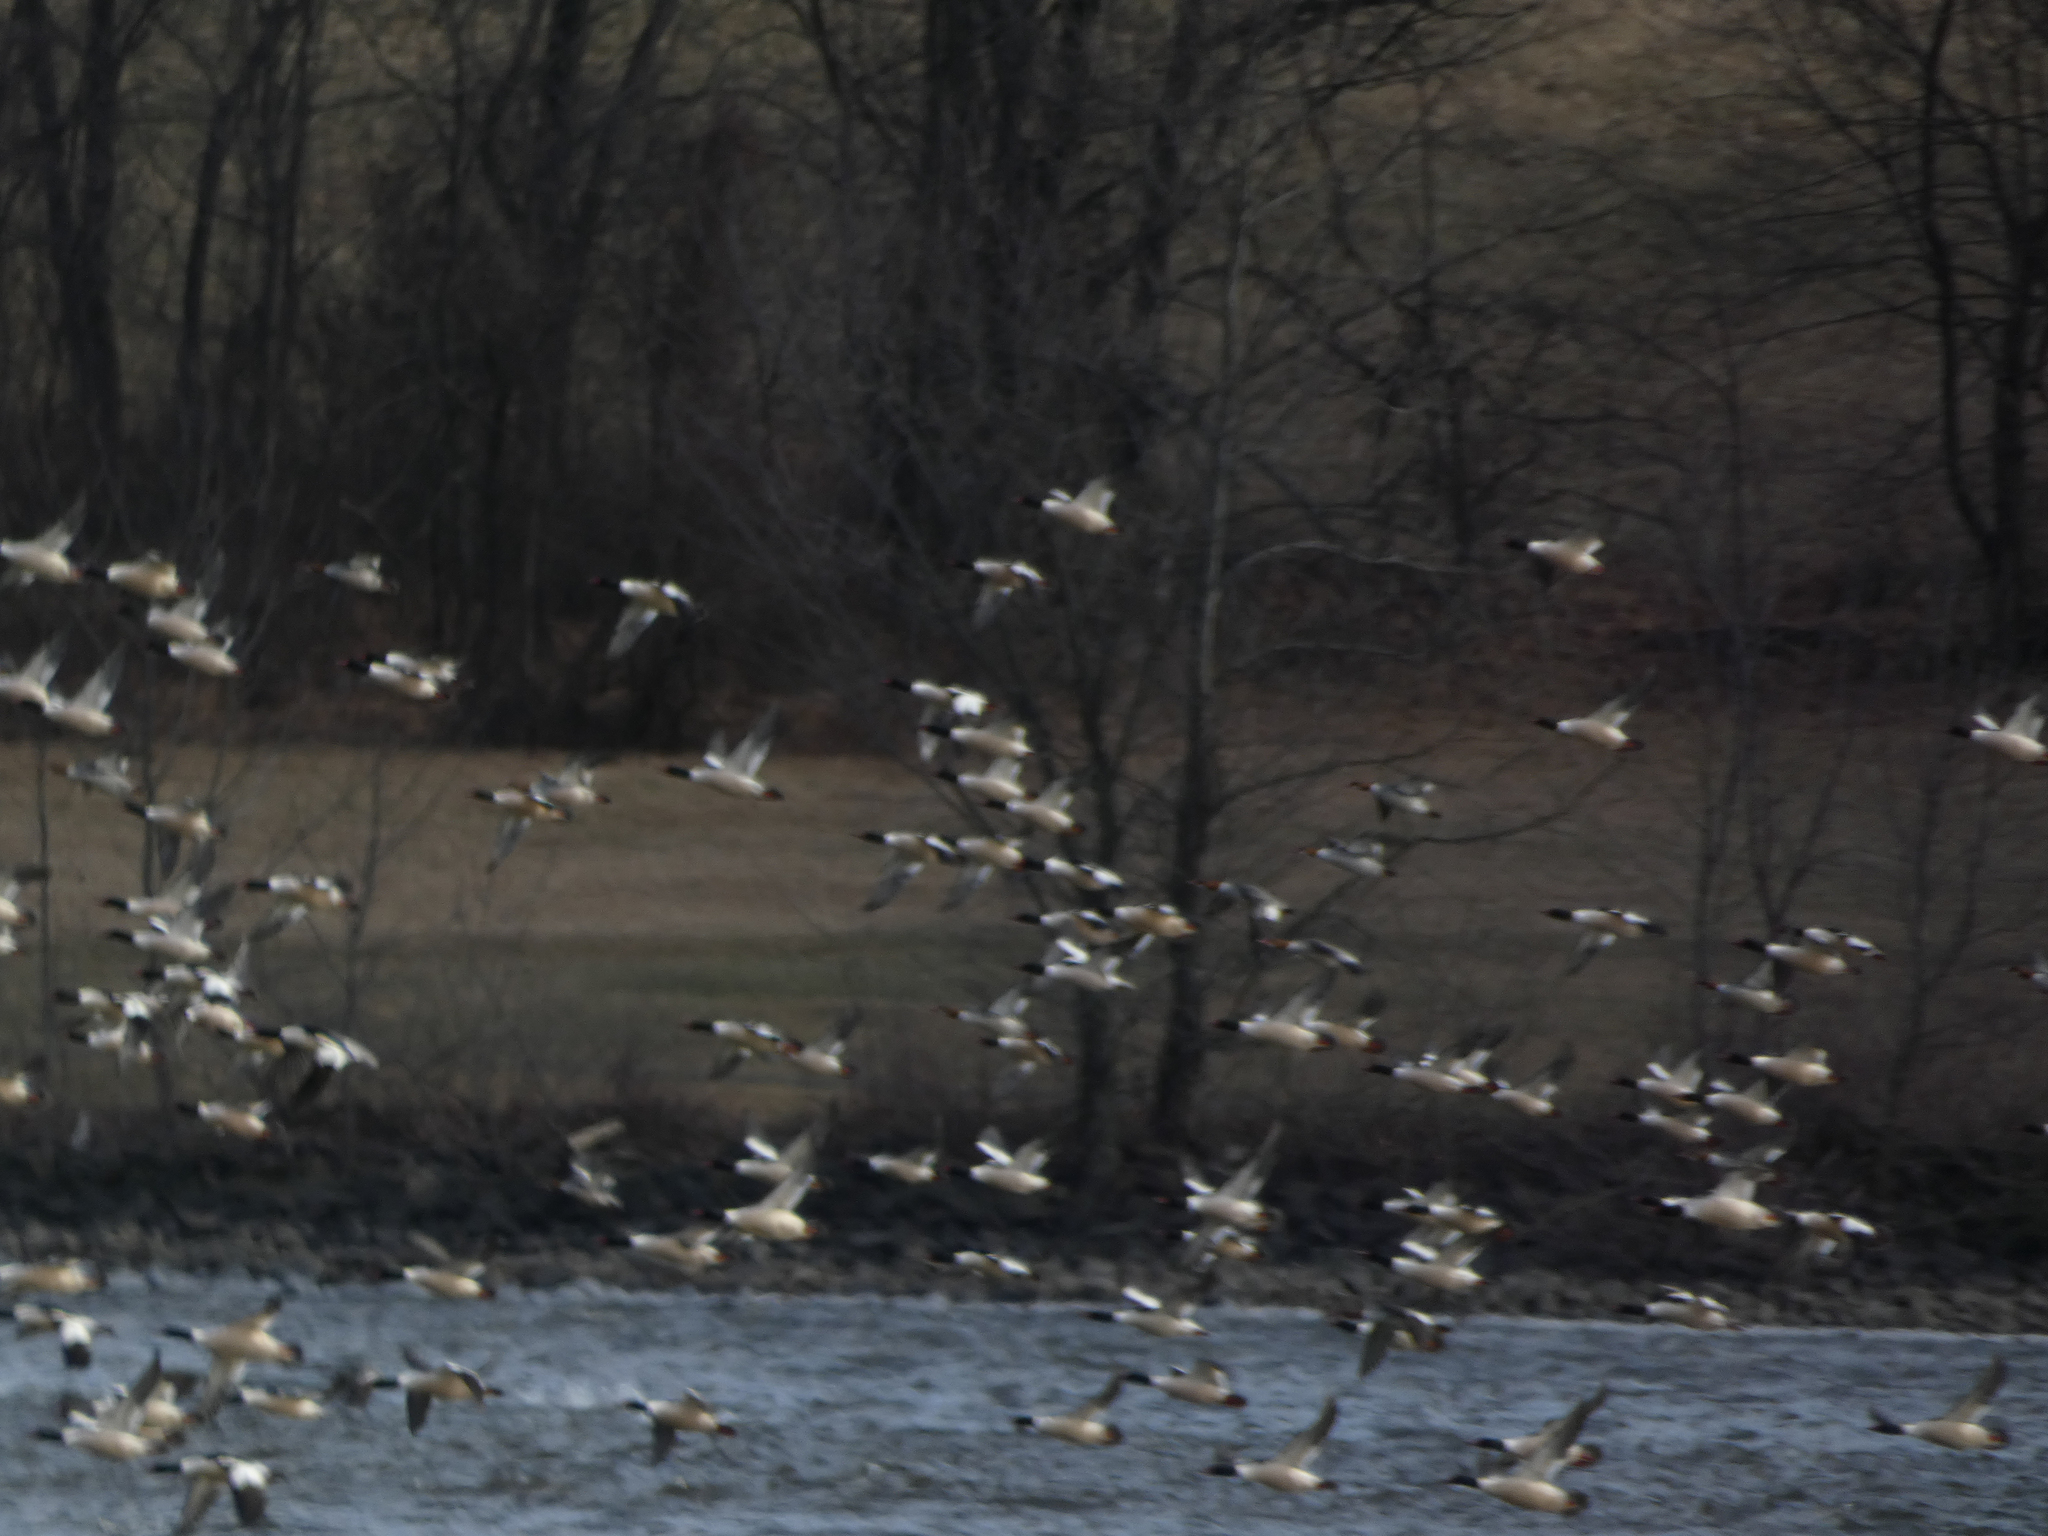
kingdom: Animalia
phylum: Chordata
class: Aves
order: Anseriformes
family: Anatidae
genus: Mergus
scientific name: Mergus merganser
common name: Common merganser
